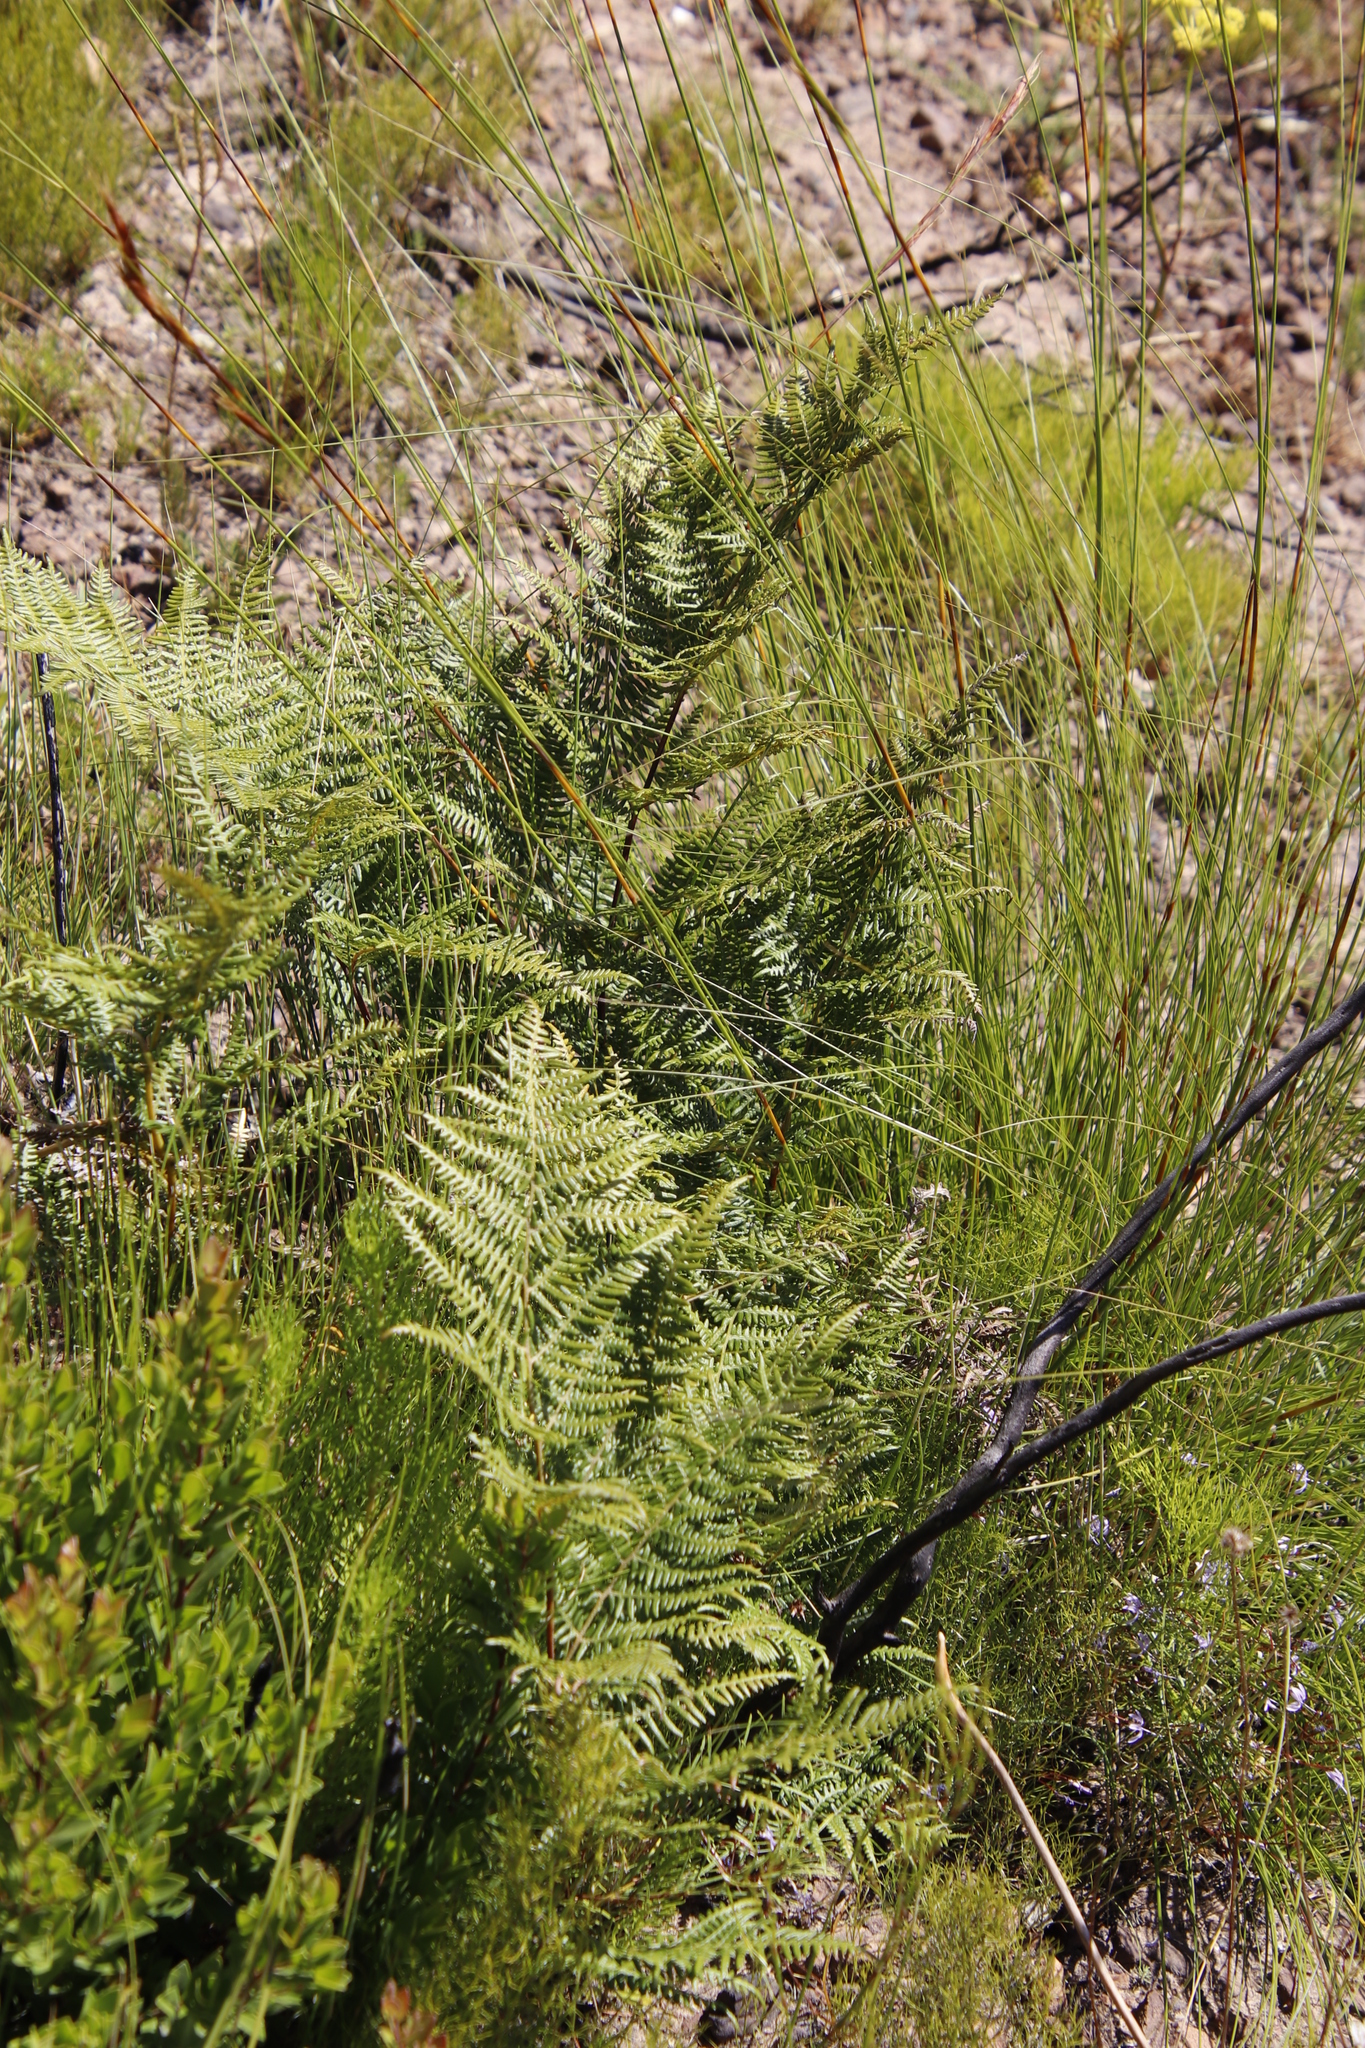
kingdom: Plantae
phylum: Tracheophyta
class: Polypodiopsida
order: Polypodiales
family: Dennstaedtiaceae
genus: Pteridium
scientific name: Pteridium aquilinum
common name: Bracken
